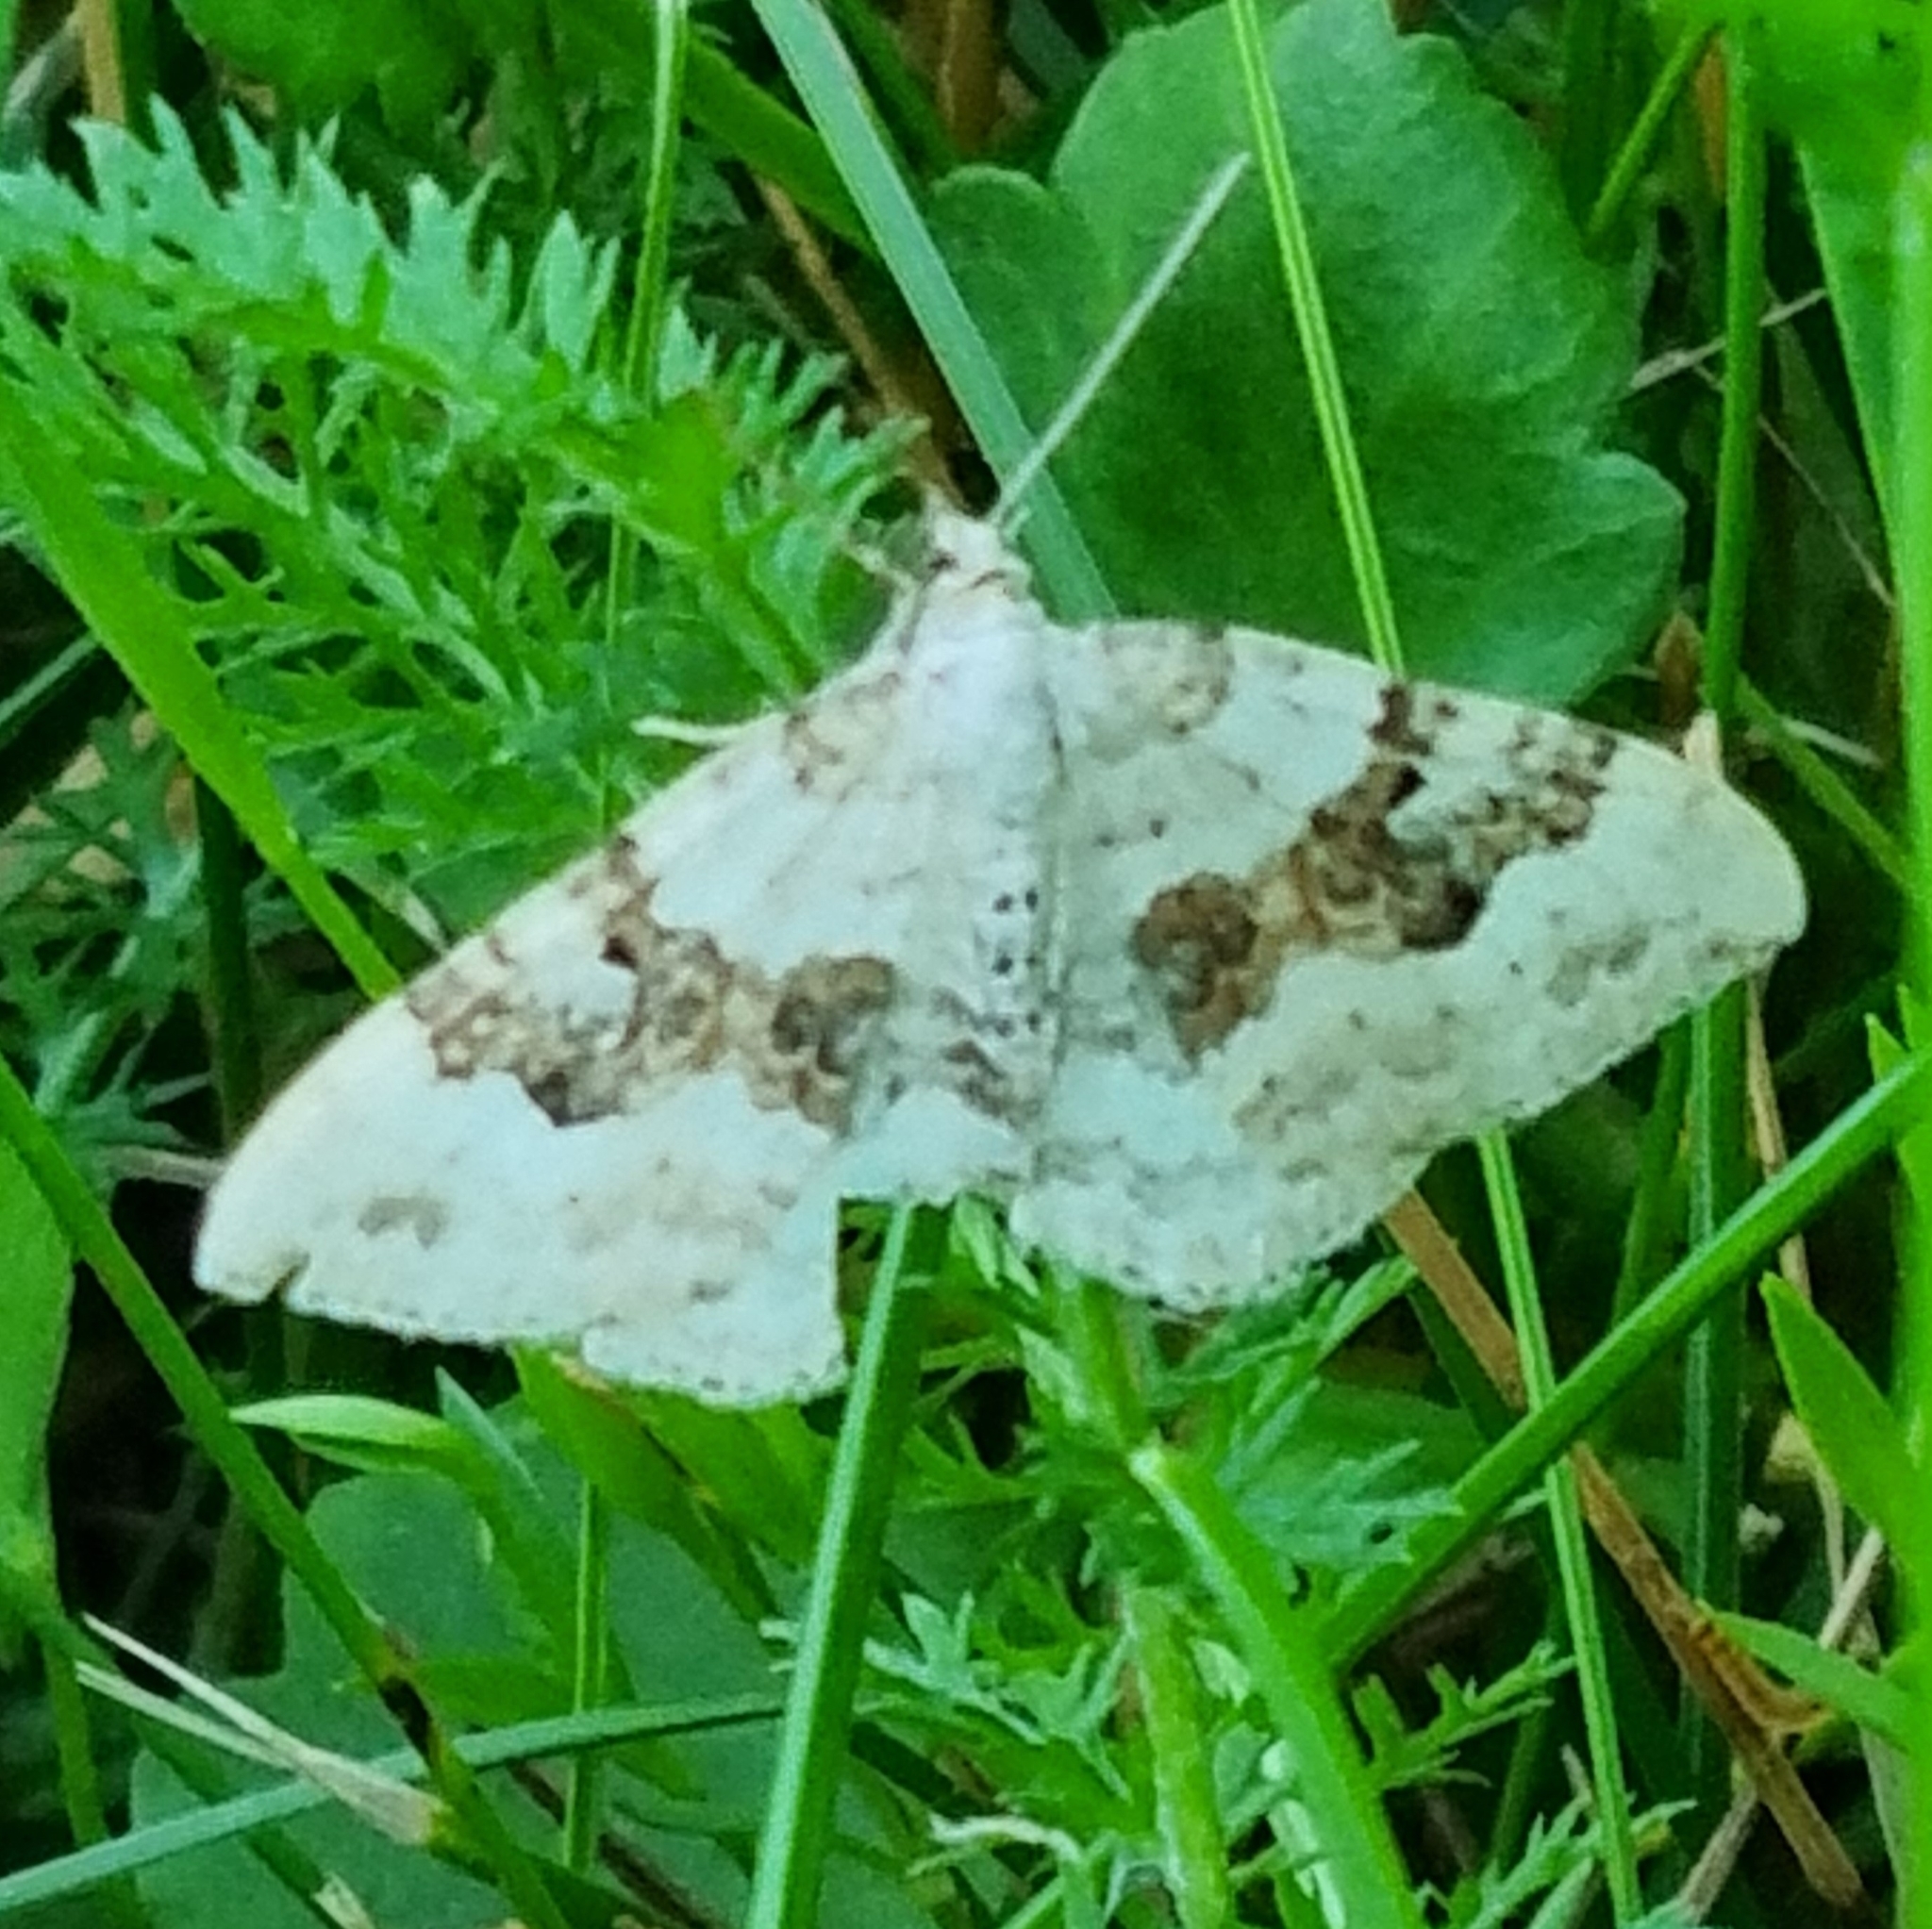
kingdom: Animalia
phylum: Arthropoda
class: Insecta
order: Lepidoptera
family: Geometridae
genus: Xanthorhoe
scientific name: Xanthorhoe montanata
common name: Silver-ground carpet
